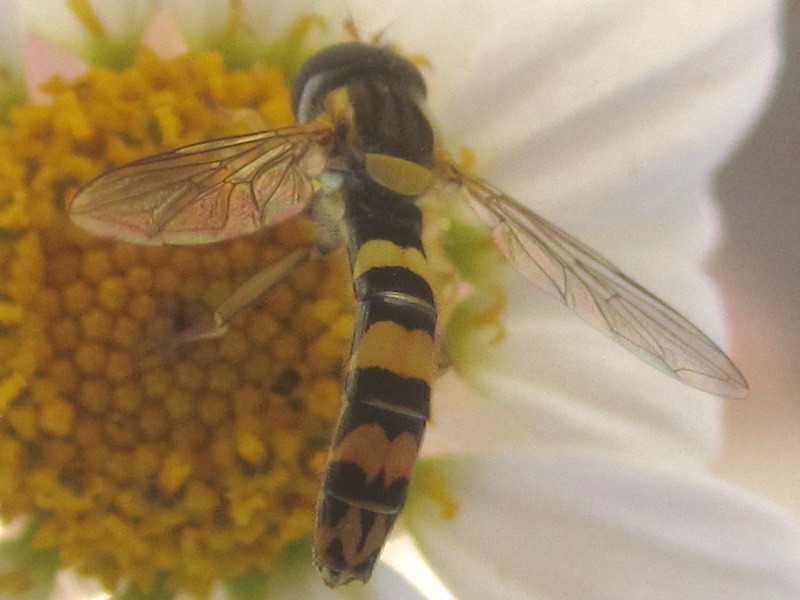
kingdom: Animalia
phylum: Arthropoda
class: Insecta
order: Diptera
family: Syrphidae
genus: Sphaerophoria
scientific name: Sphaerophoria scripta
